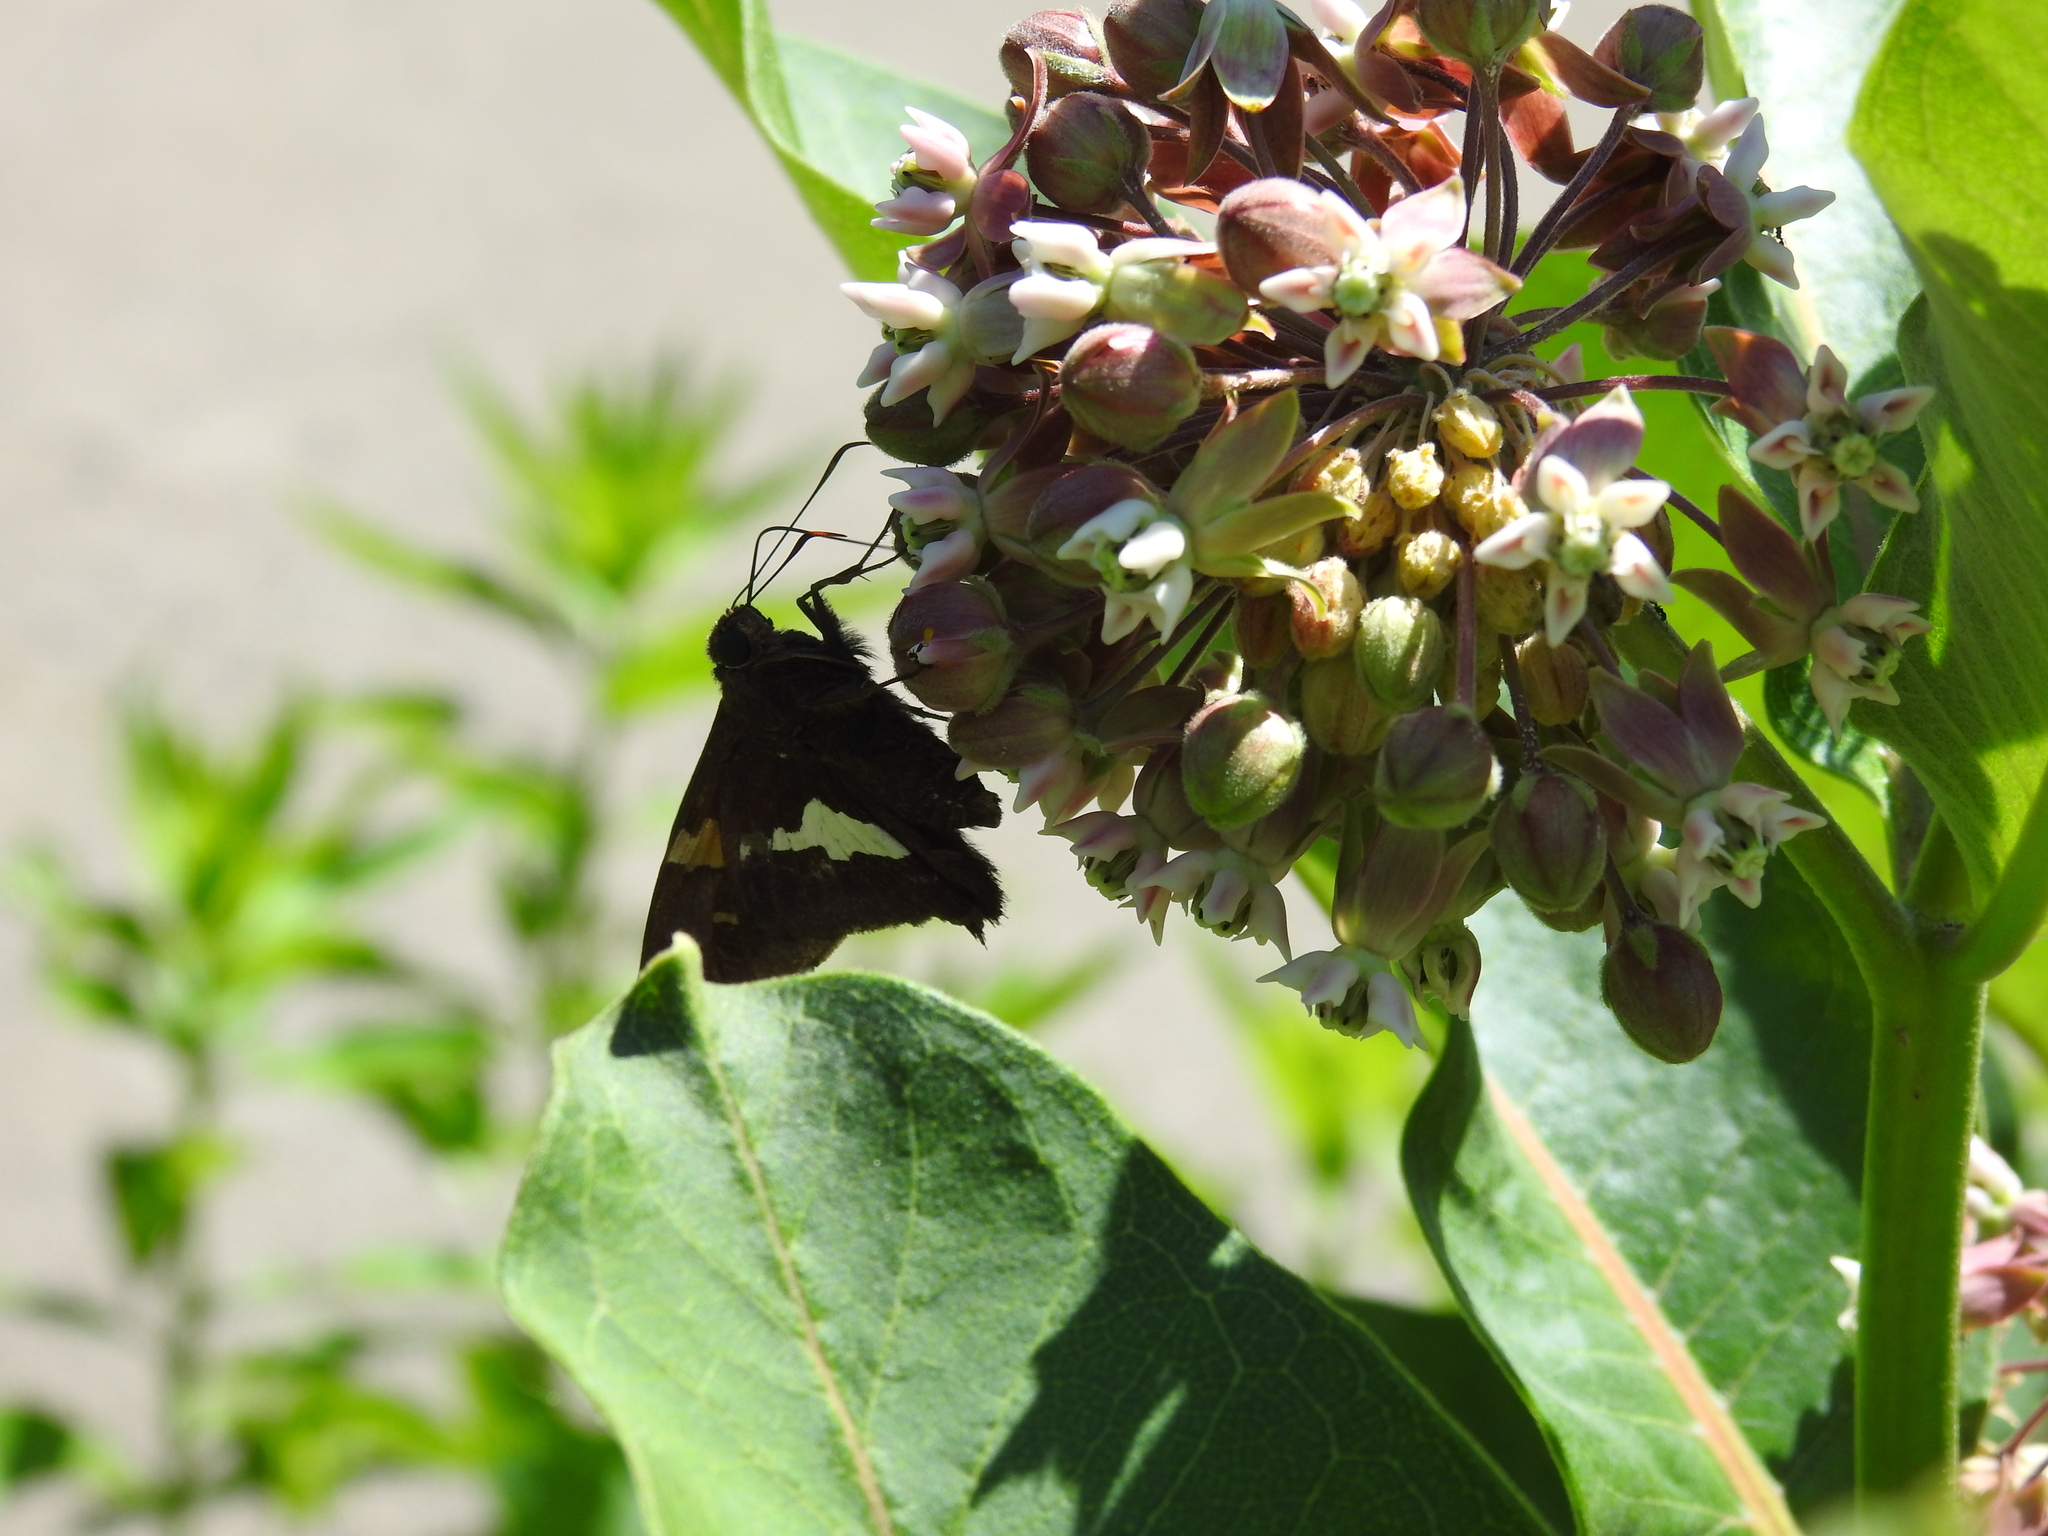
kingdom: Animalia
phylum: Arthropoda
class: Insecta
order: Lepidoptera
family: Hesperiidae
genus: Epargyreus
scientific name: Epargyreus clarus
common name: Silver-spotted skipper
